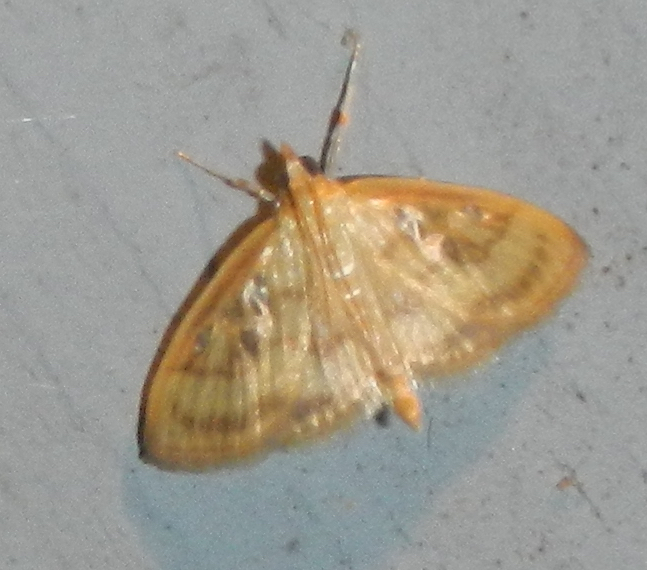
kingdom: Animalia
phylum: Arthropoda
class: Insecta
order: Lepidoptera
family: Crambidae
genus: Crocidophora
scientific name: Crocidophora tuberculalis
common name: Pale-winged crocidiphora moth
